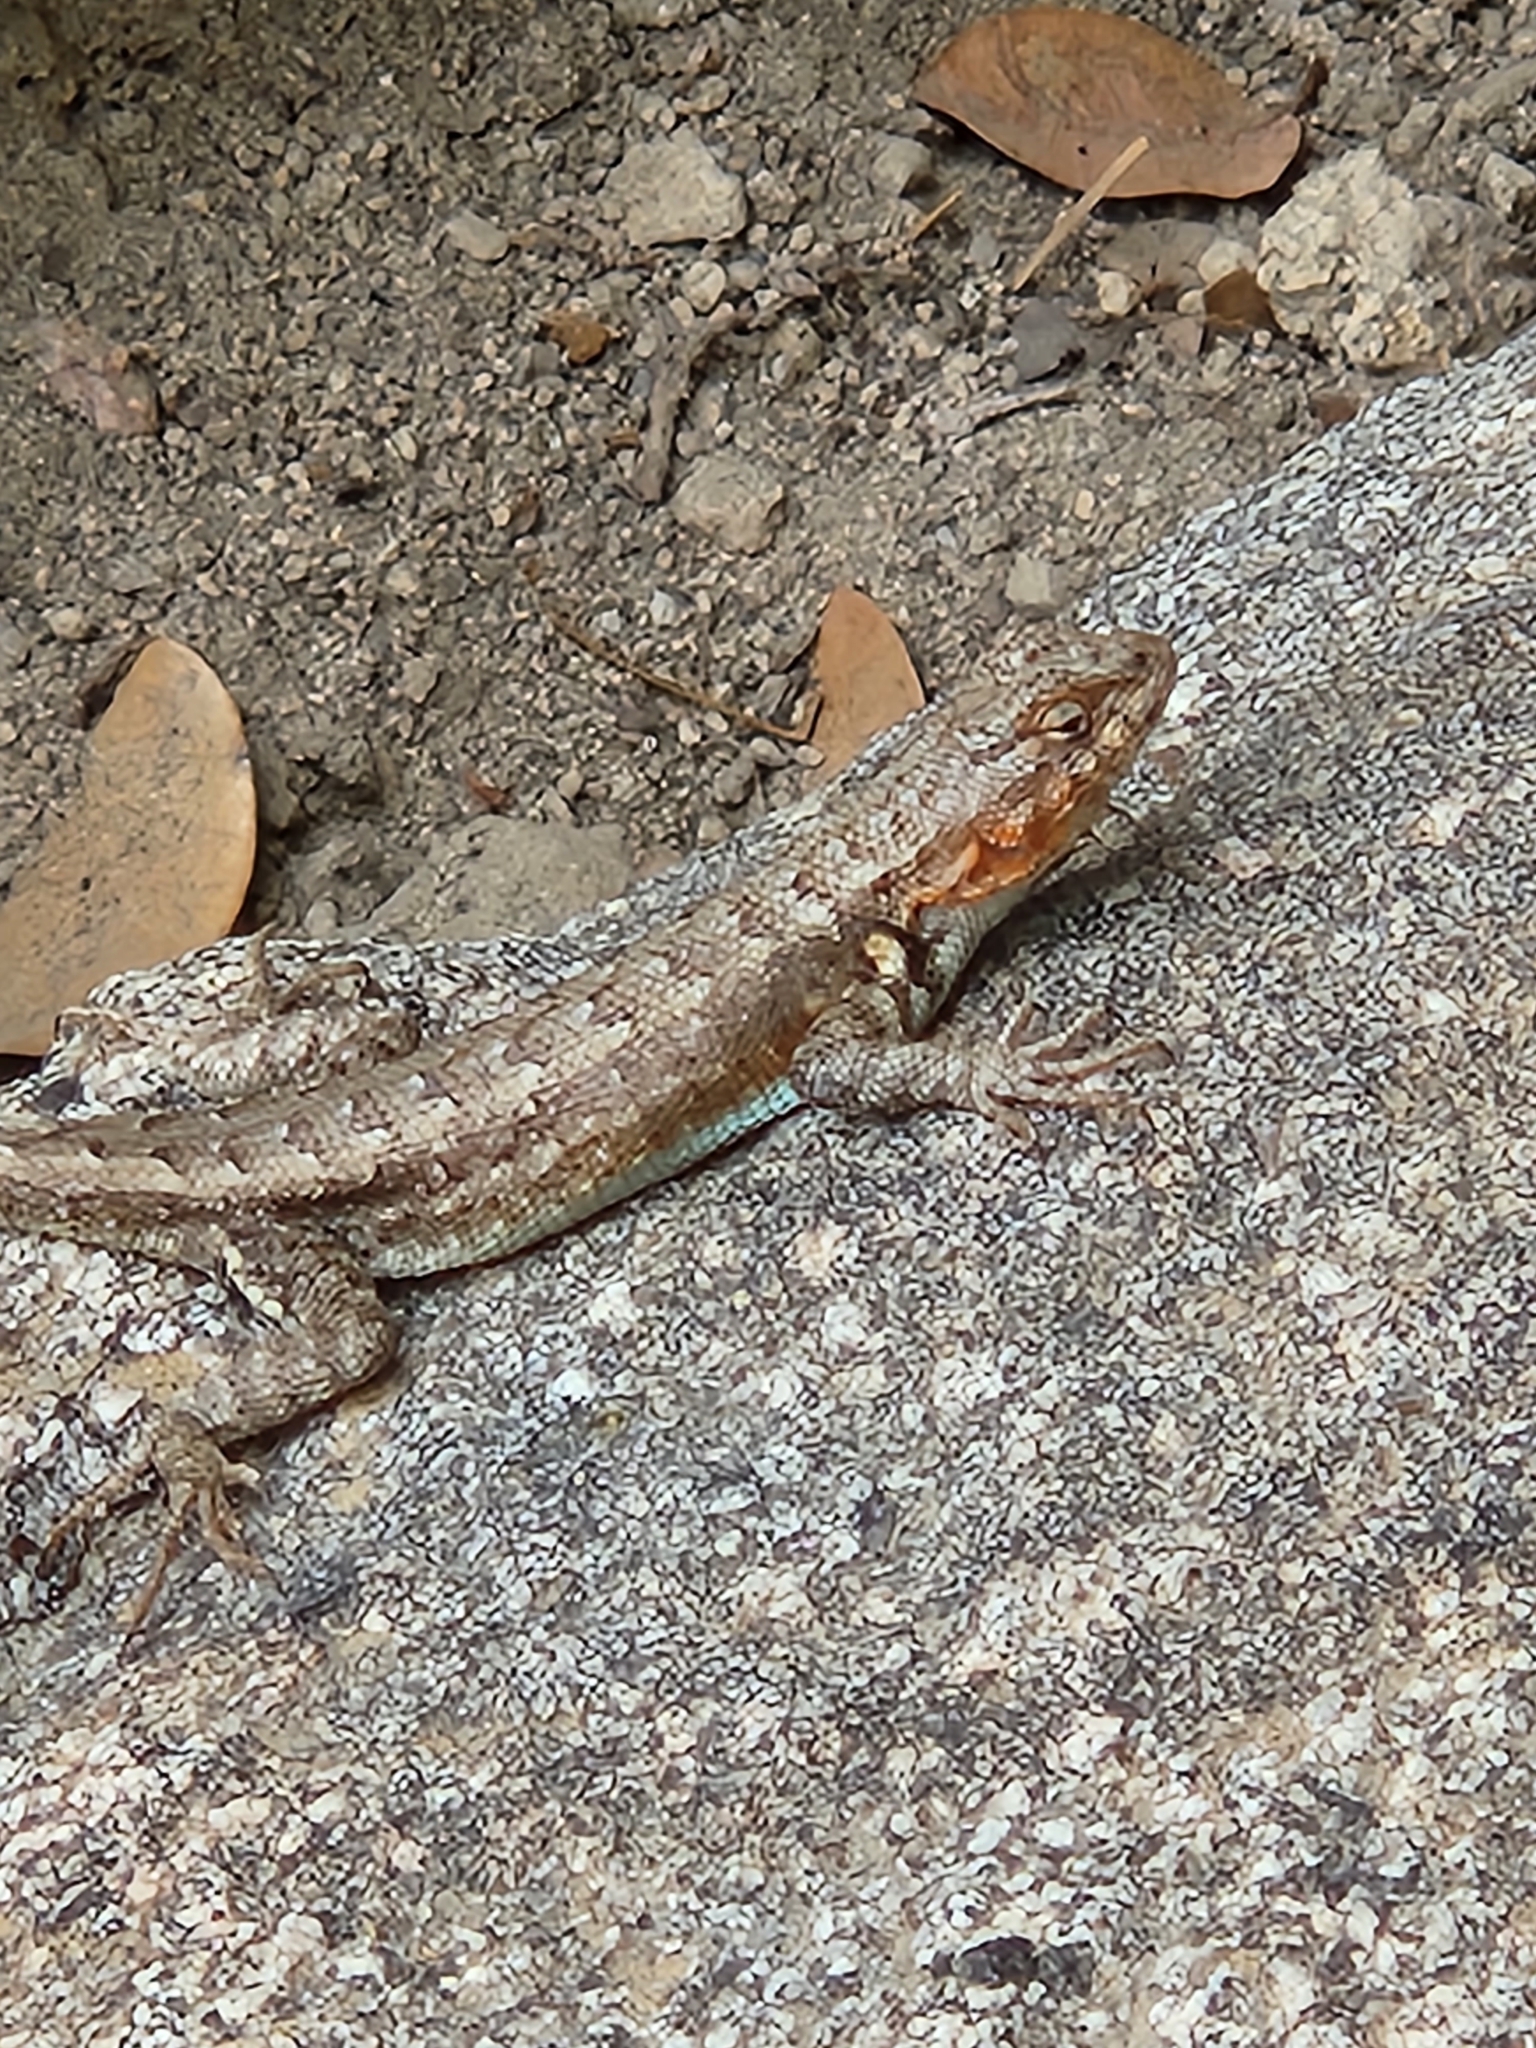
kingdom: Animalia
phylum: Chordata
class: Squamata
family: Phrynosomatidae
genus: Sceloporus
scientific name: Sceloporus graciosus
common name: Sagebrush lizard
